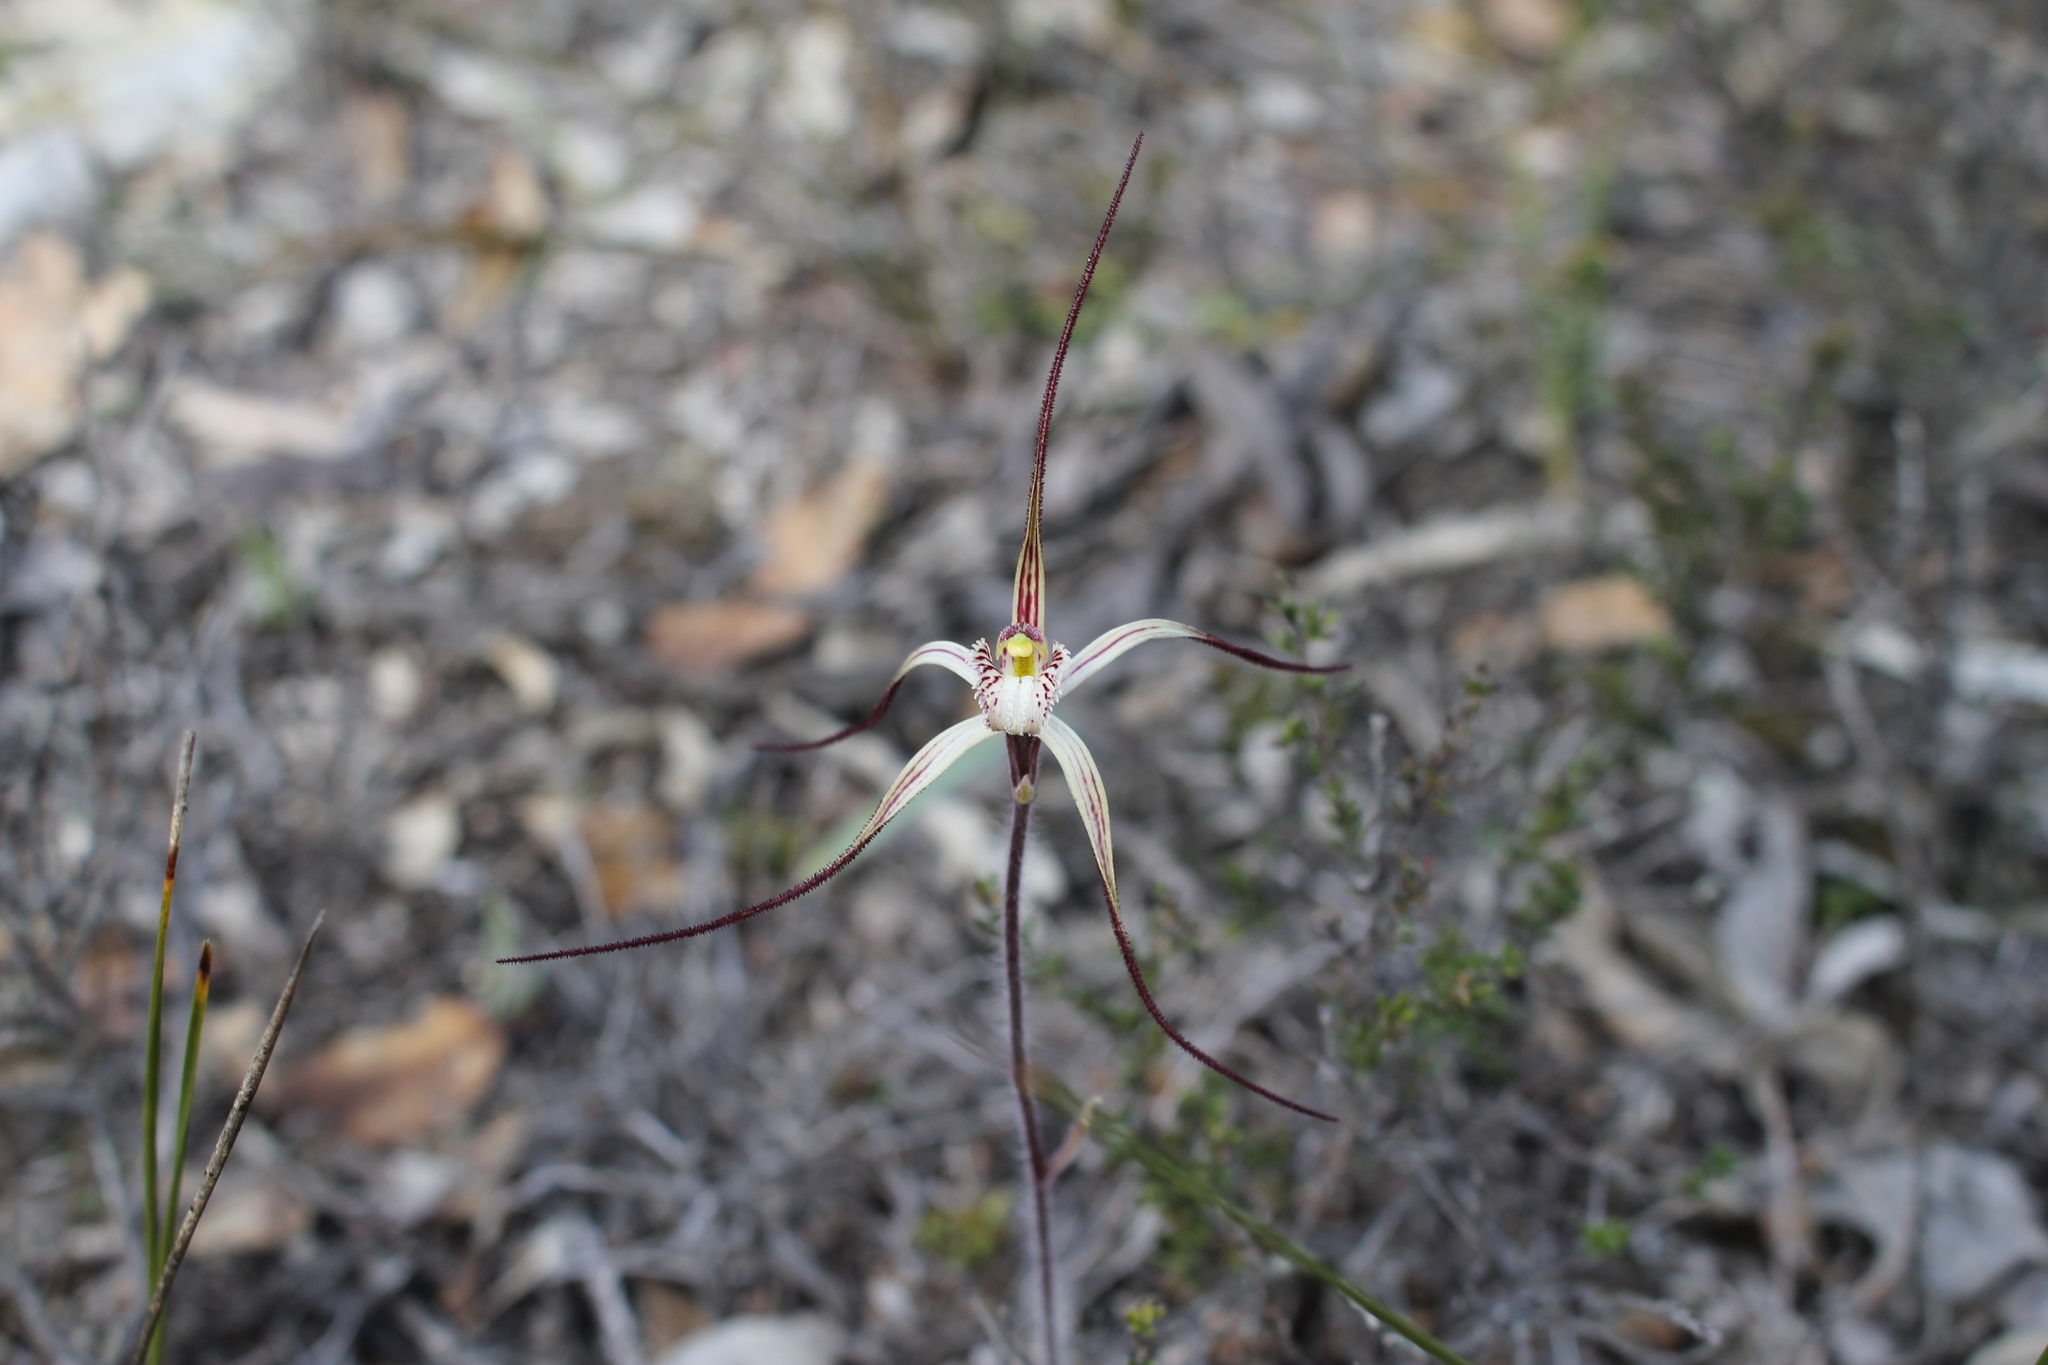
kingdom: Plantae
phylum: Tracheophyta
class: Liliopsida
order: Asparagales
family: Orchidaceae
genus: Caladenia
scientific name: Caladenia polychroma
